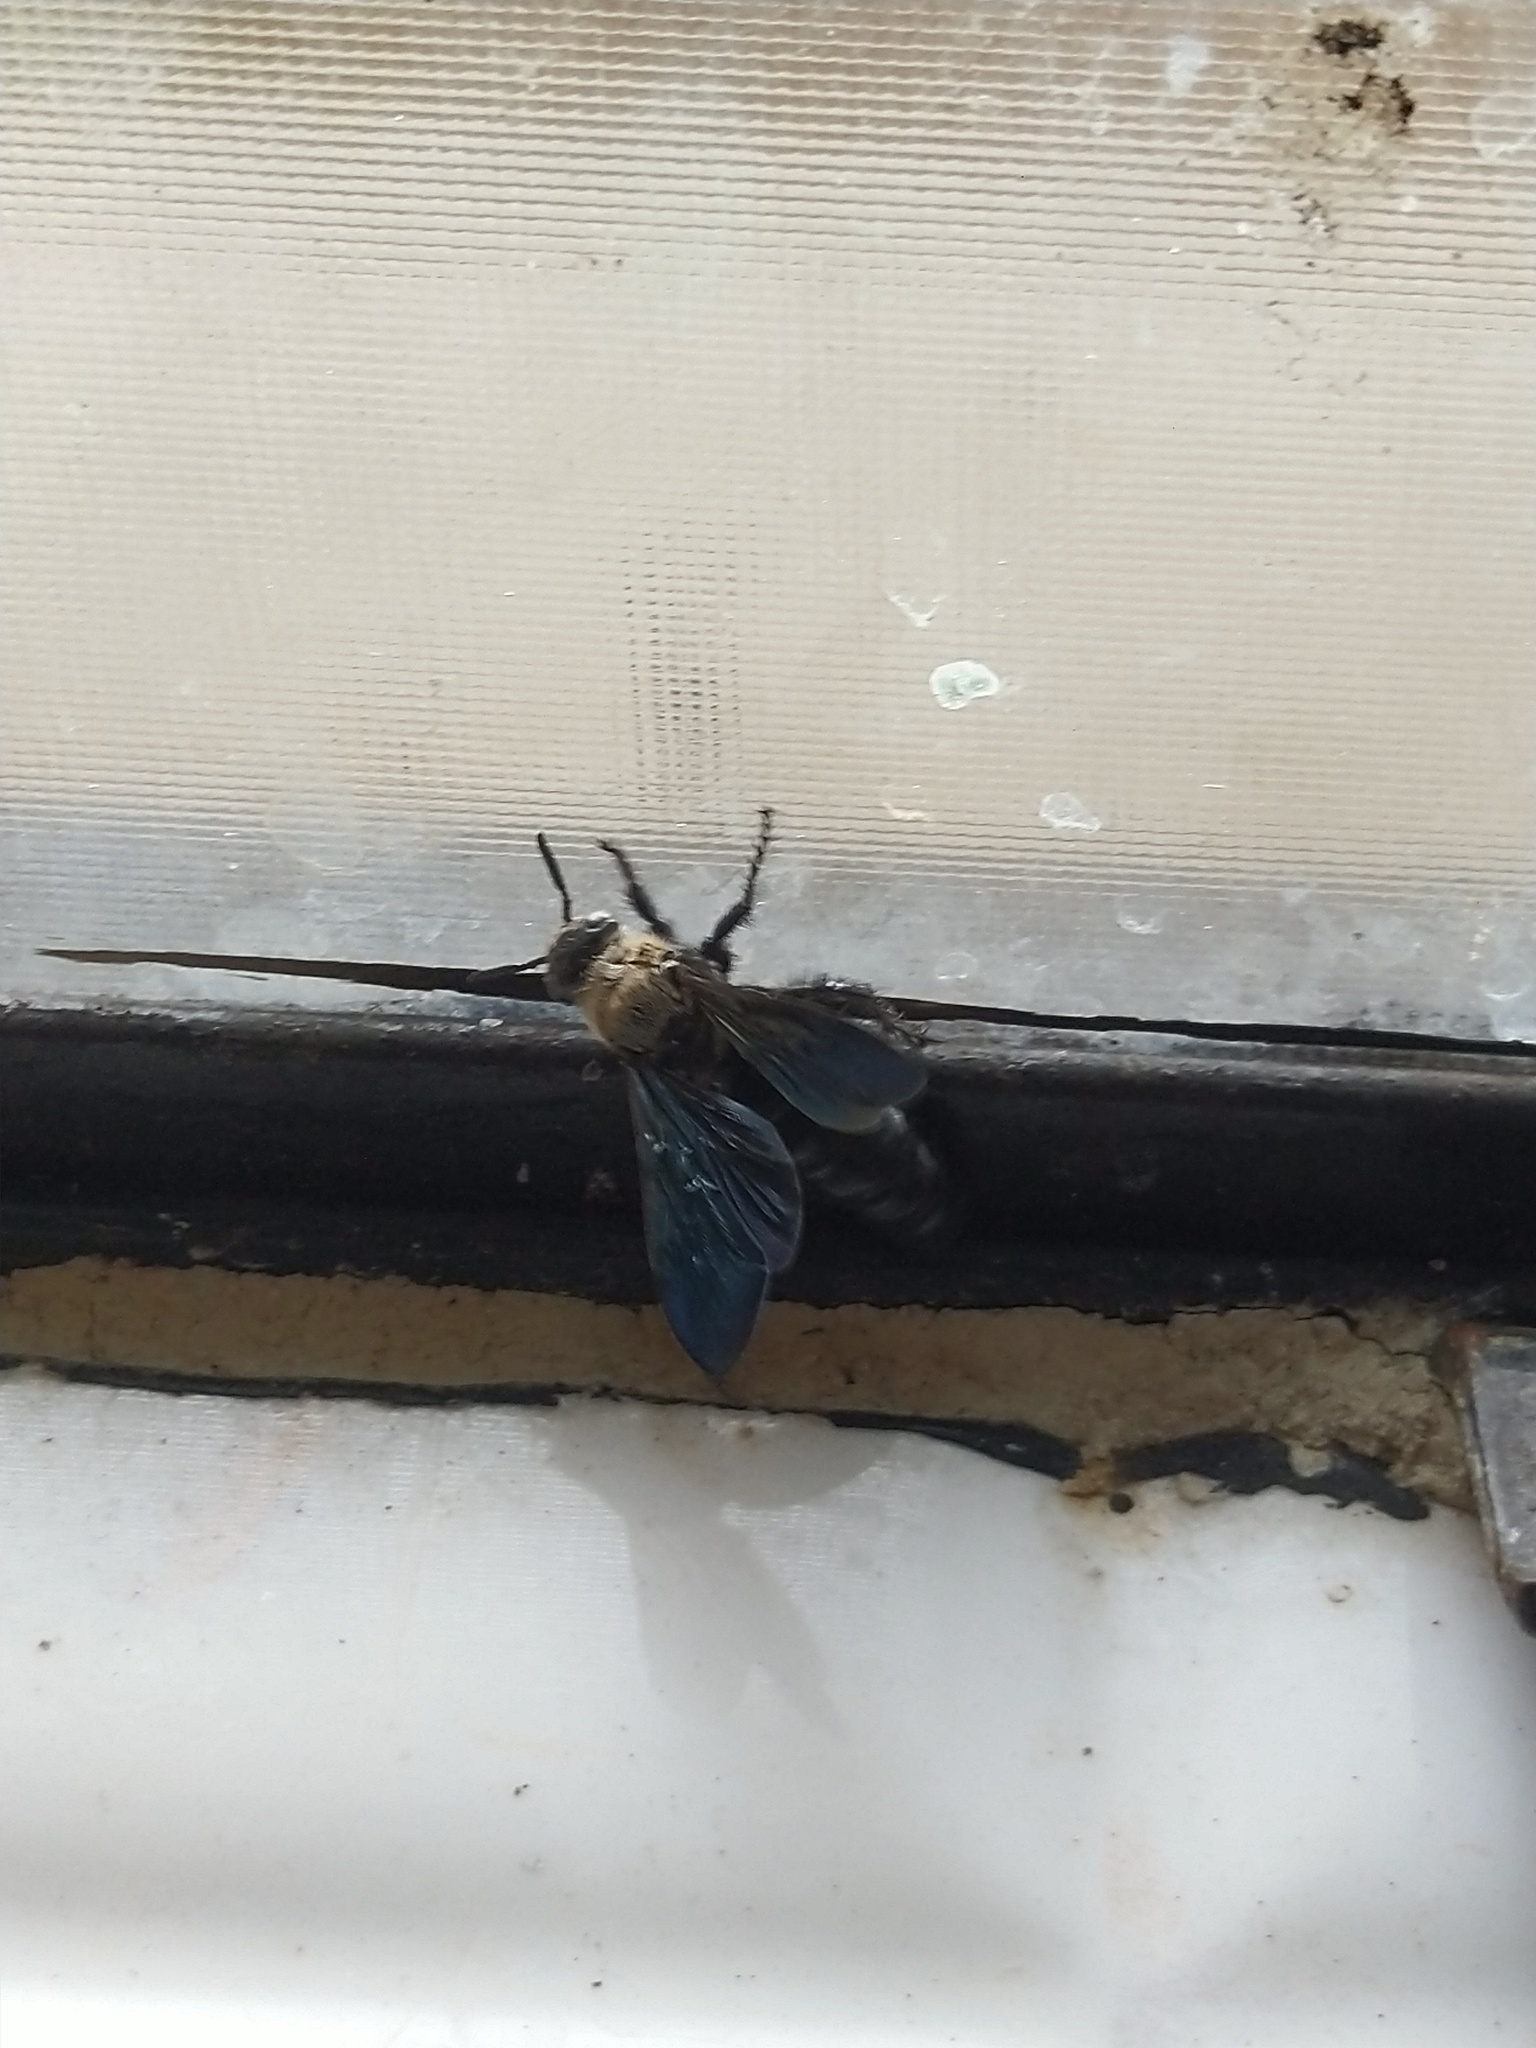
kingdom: Animalia
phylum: Arthropoda
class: Insecta
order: Hymenoptera
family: Scoliidae
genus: Campsomeriella
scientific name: Campsomeriella collaris
